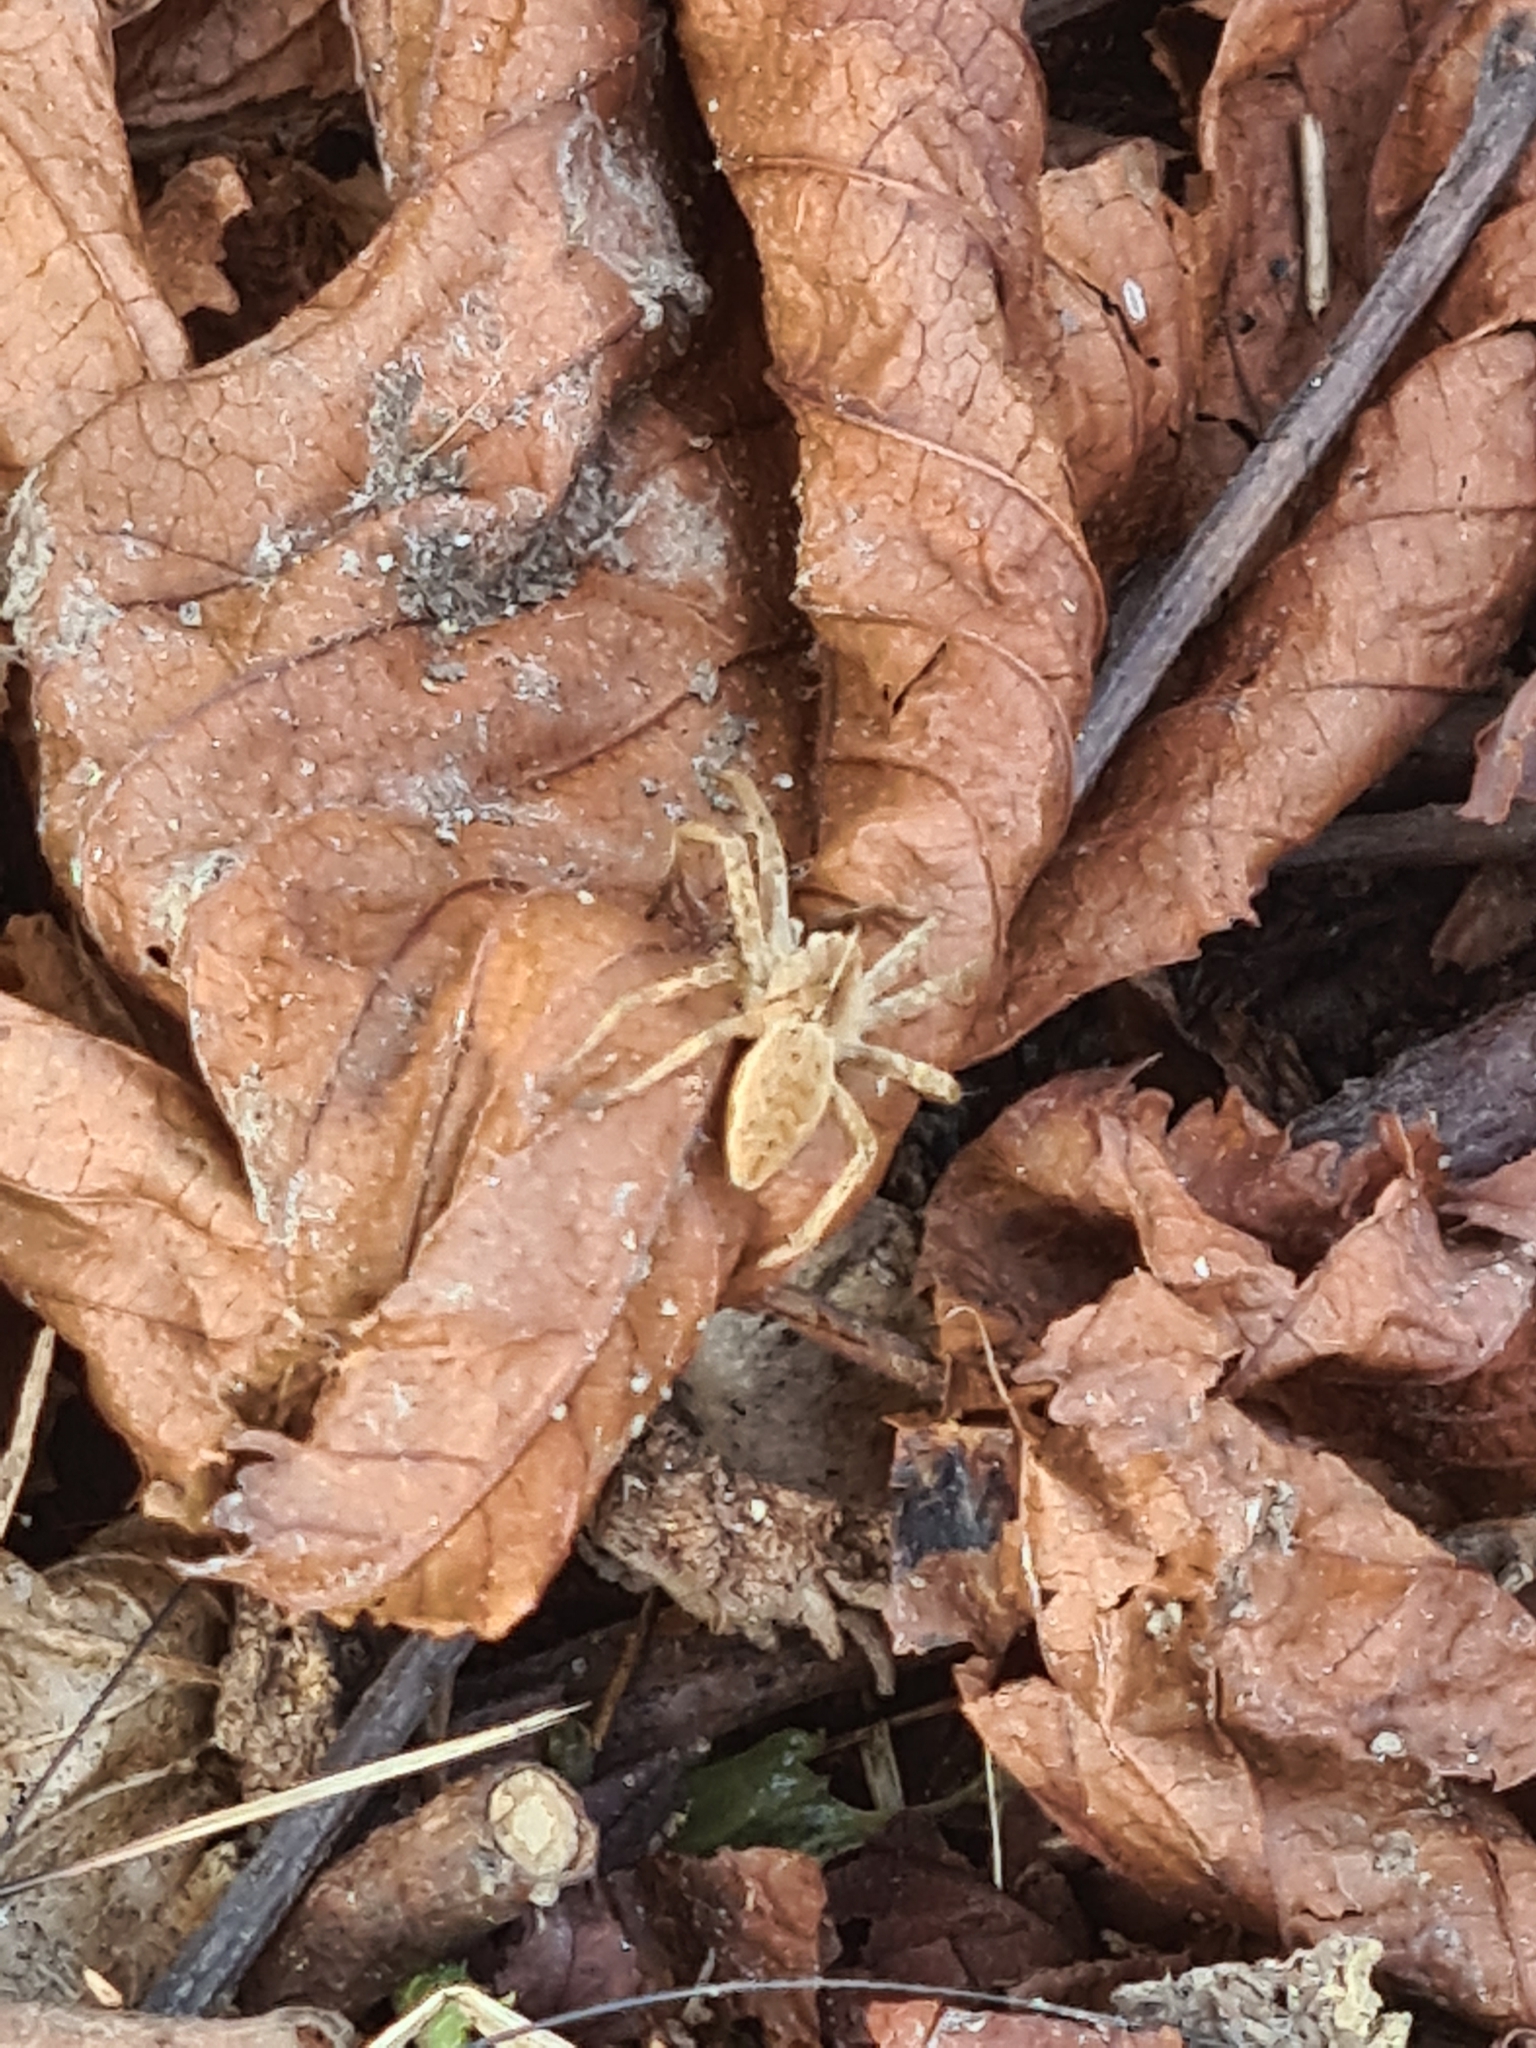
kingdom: Animalia
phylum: Arthropoda
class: Arachnida
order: Araneae
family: Pisauridae
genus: Pisaura
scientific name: Pisaura mirabilis
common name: Tent spider
